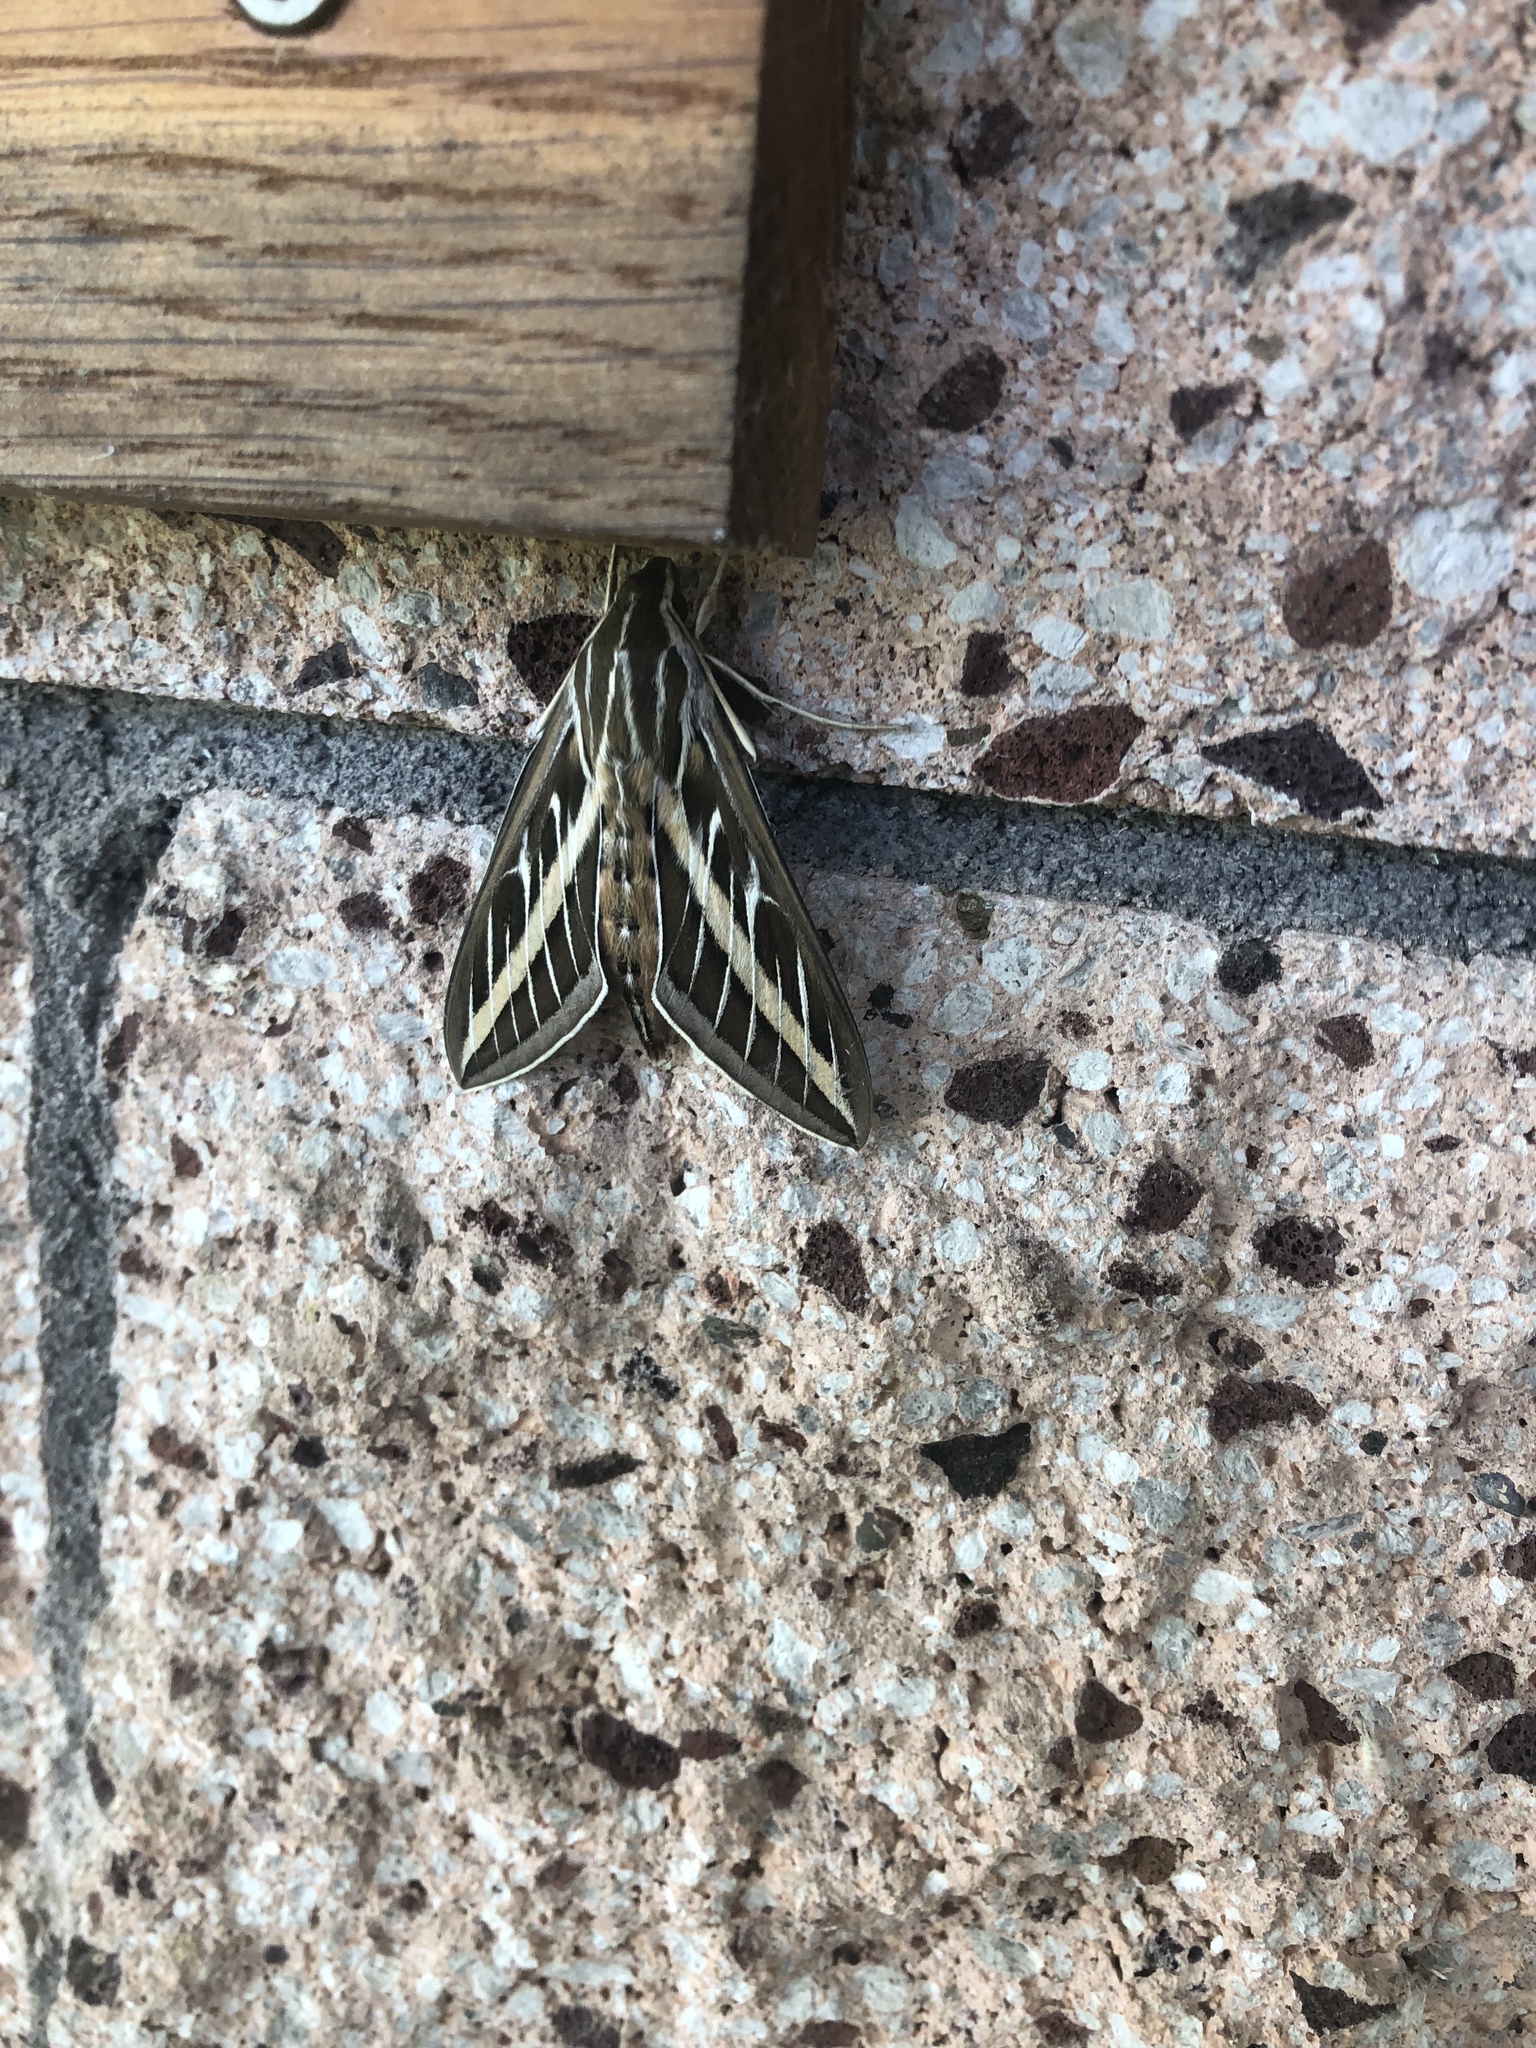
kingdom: Animalia
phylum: Arthropoda
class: Insecta
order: Lepidoptera
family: Sphingidae
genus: Hyles
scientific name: Hyles lineata
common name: White-lined sphinx
